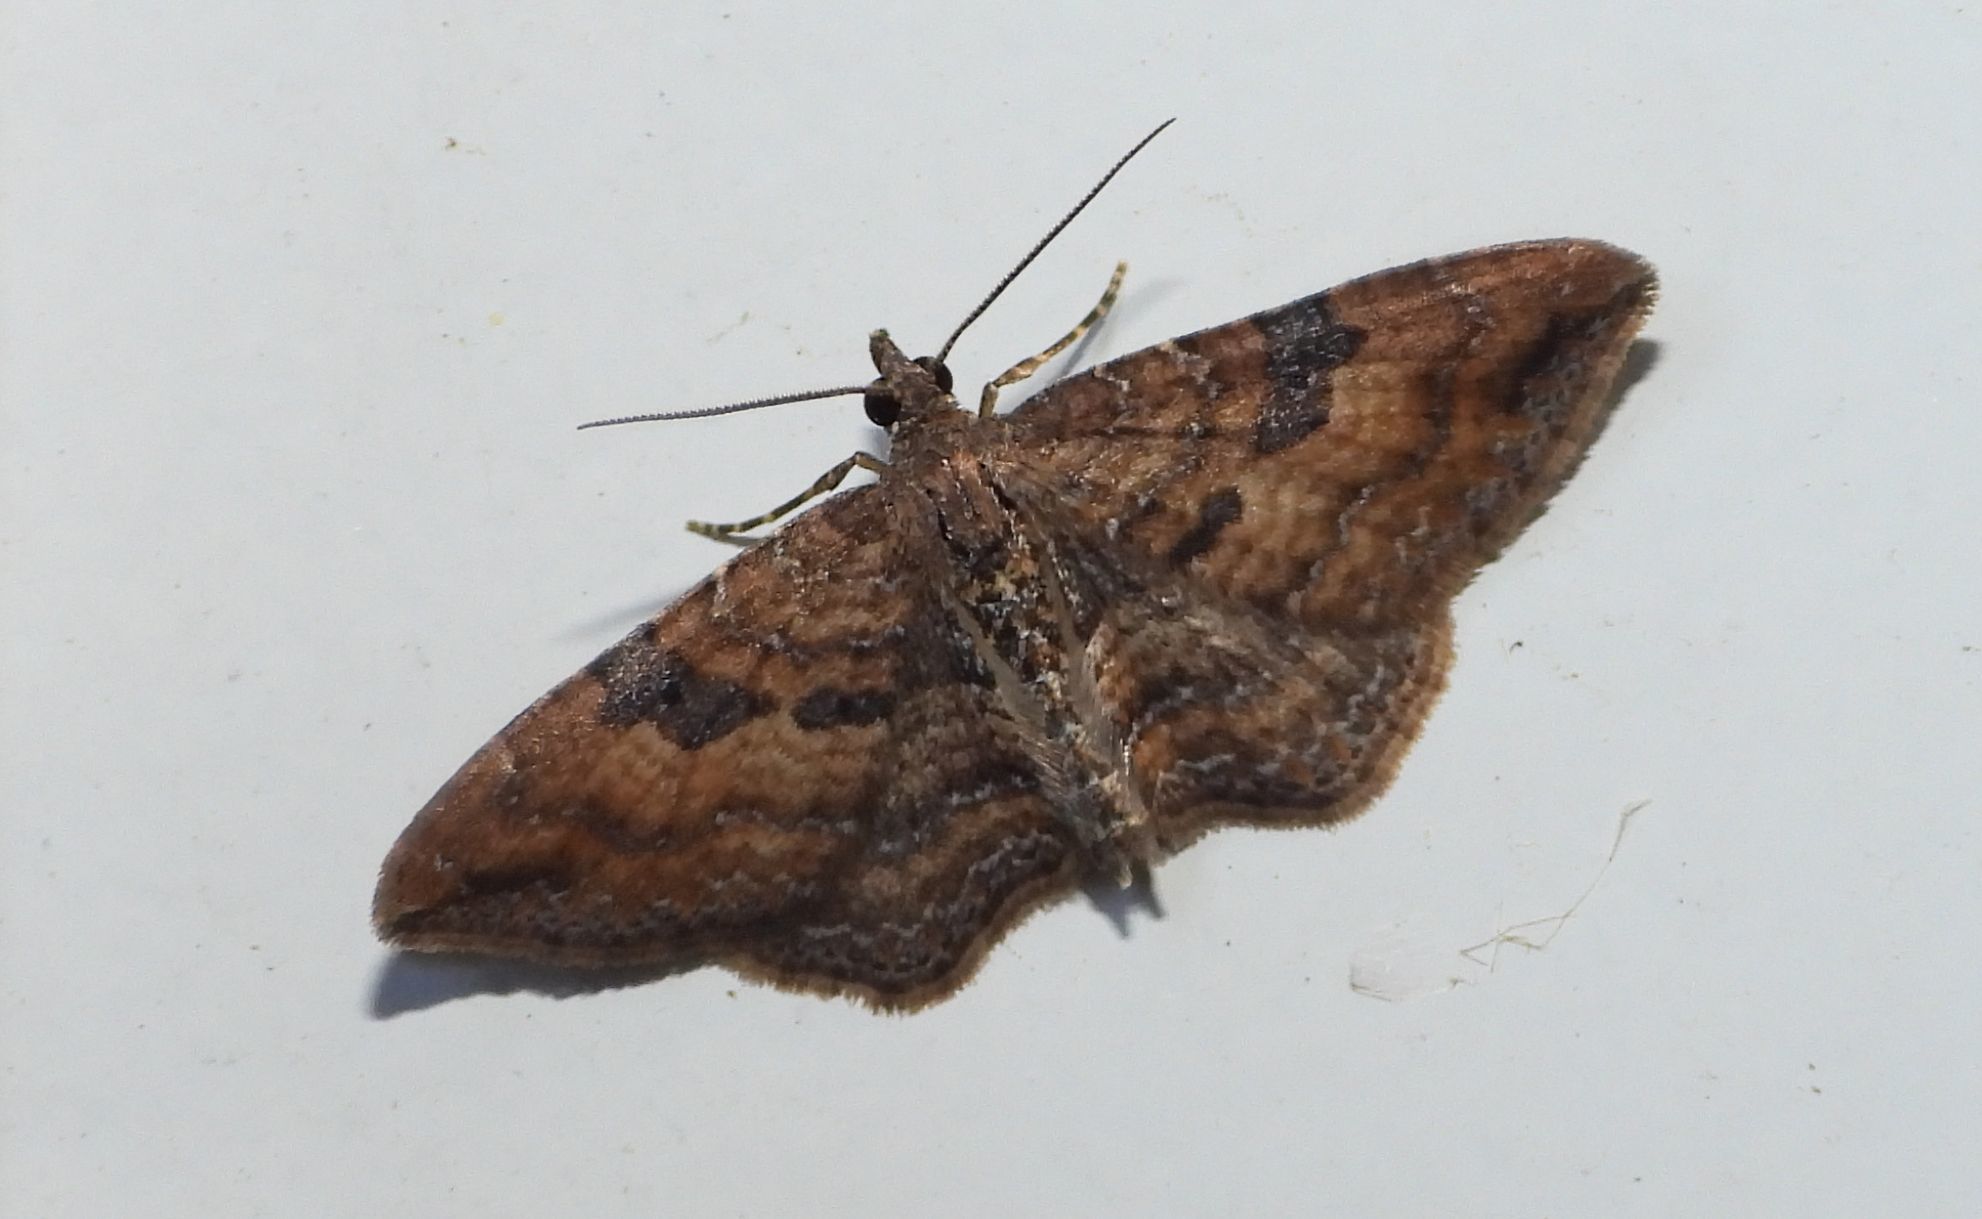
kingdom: Animalia
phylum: Arthropoda
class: Insecta
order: Lepidoptera
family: Geometridae
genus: Orthonama
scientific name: Orthonama obstipata
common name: The gem
